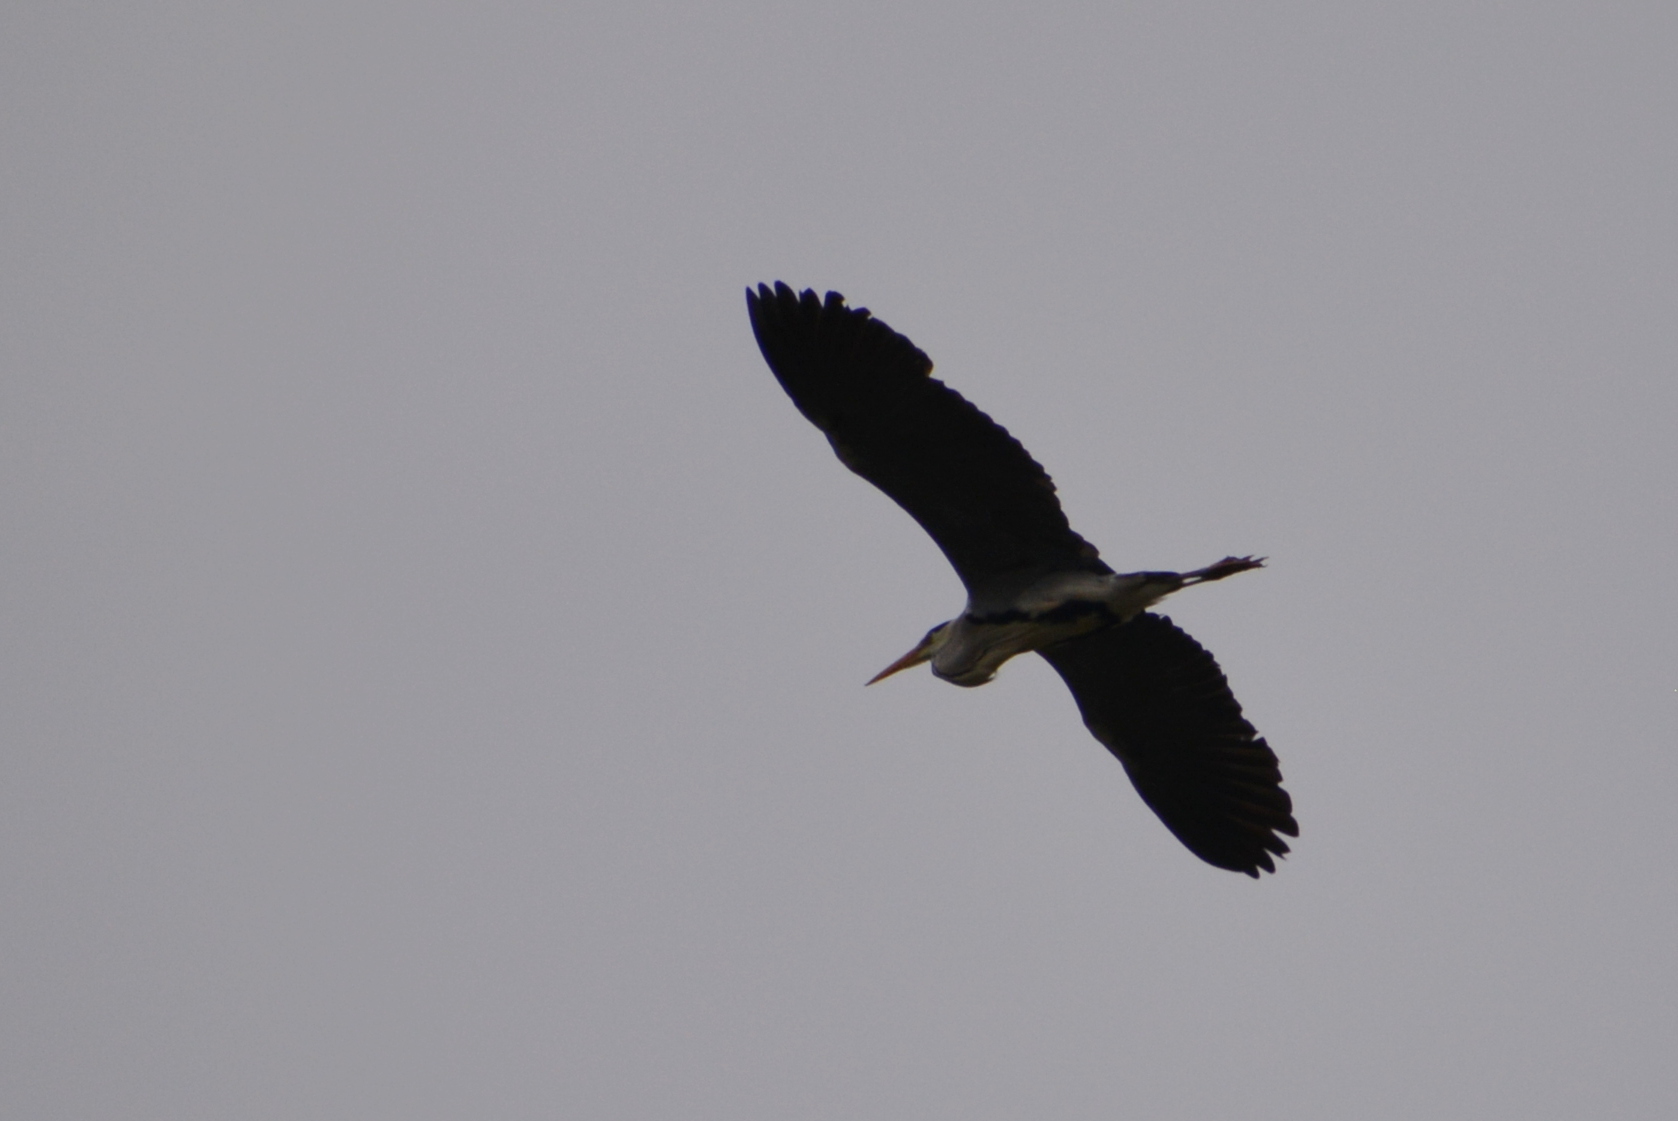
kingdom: Animalia
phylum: Chordata
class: Aves
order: Pelecaniformes
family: Ardeidae
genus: Ardea
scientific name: Ardea cinerea
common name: Grey heron
